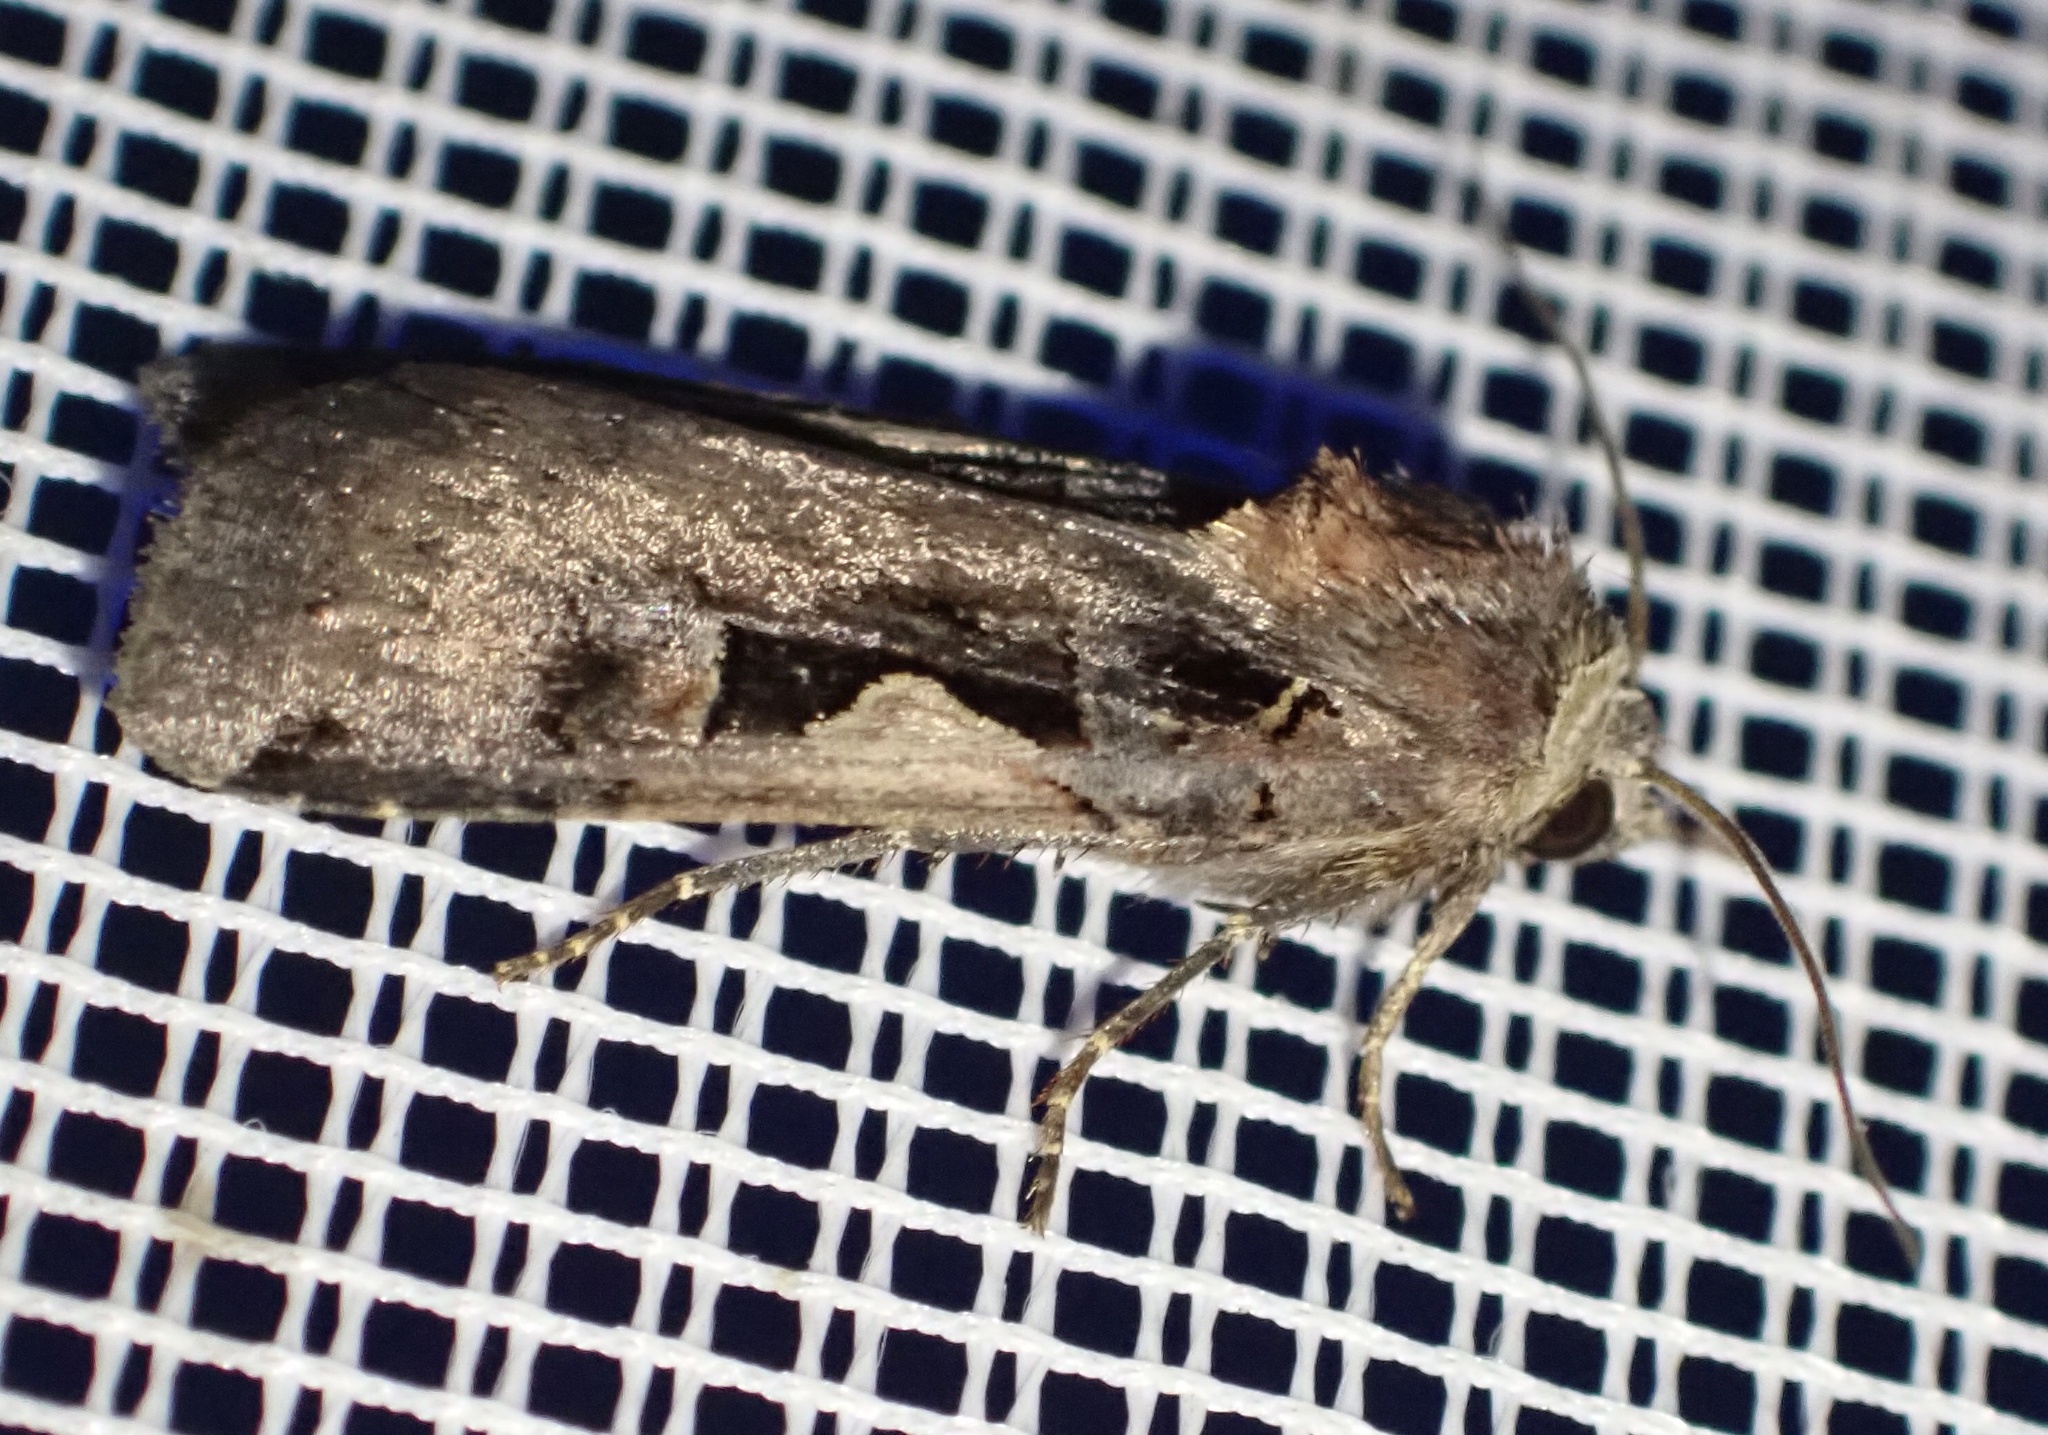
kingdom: Animalia
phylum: Arthropoda
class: Insecta
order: Lepidoptera
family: Noctuidae
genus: Xestia
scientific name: Xestia c-nigrum
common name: Setaceous hebrew character
